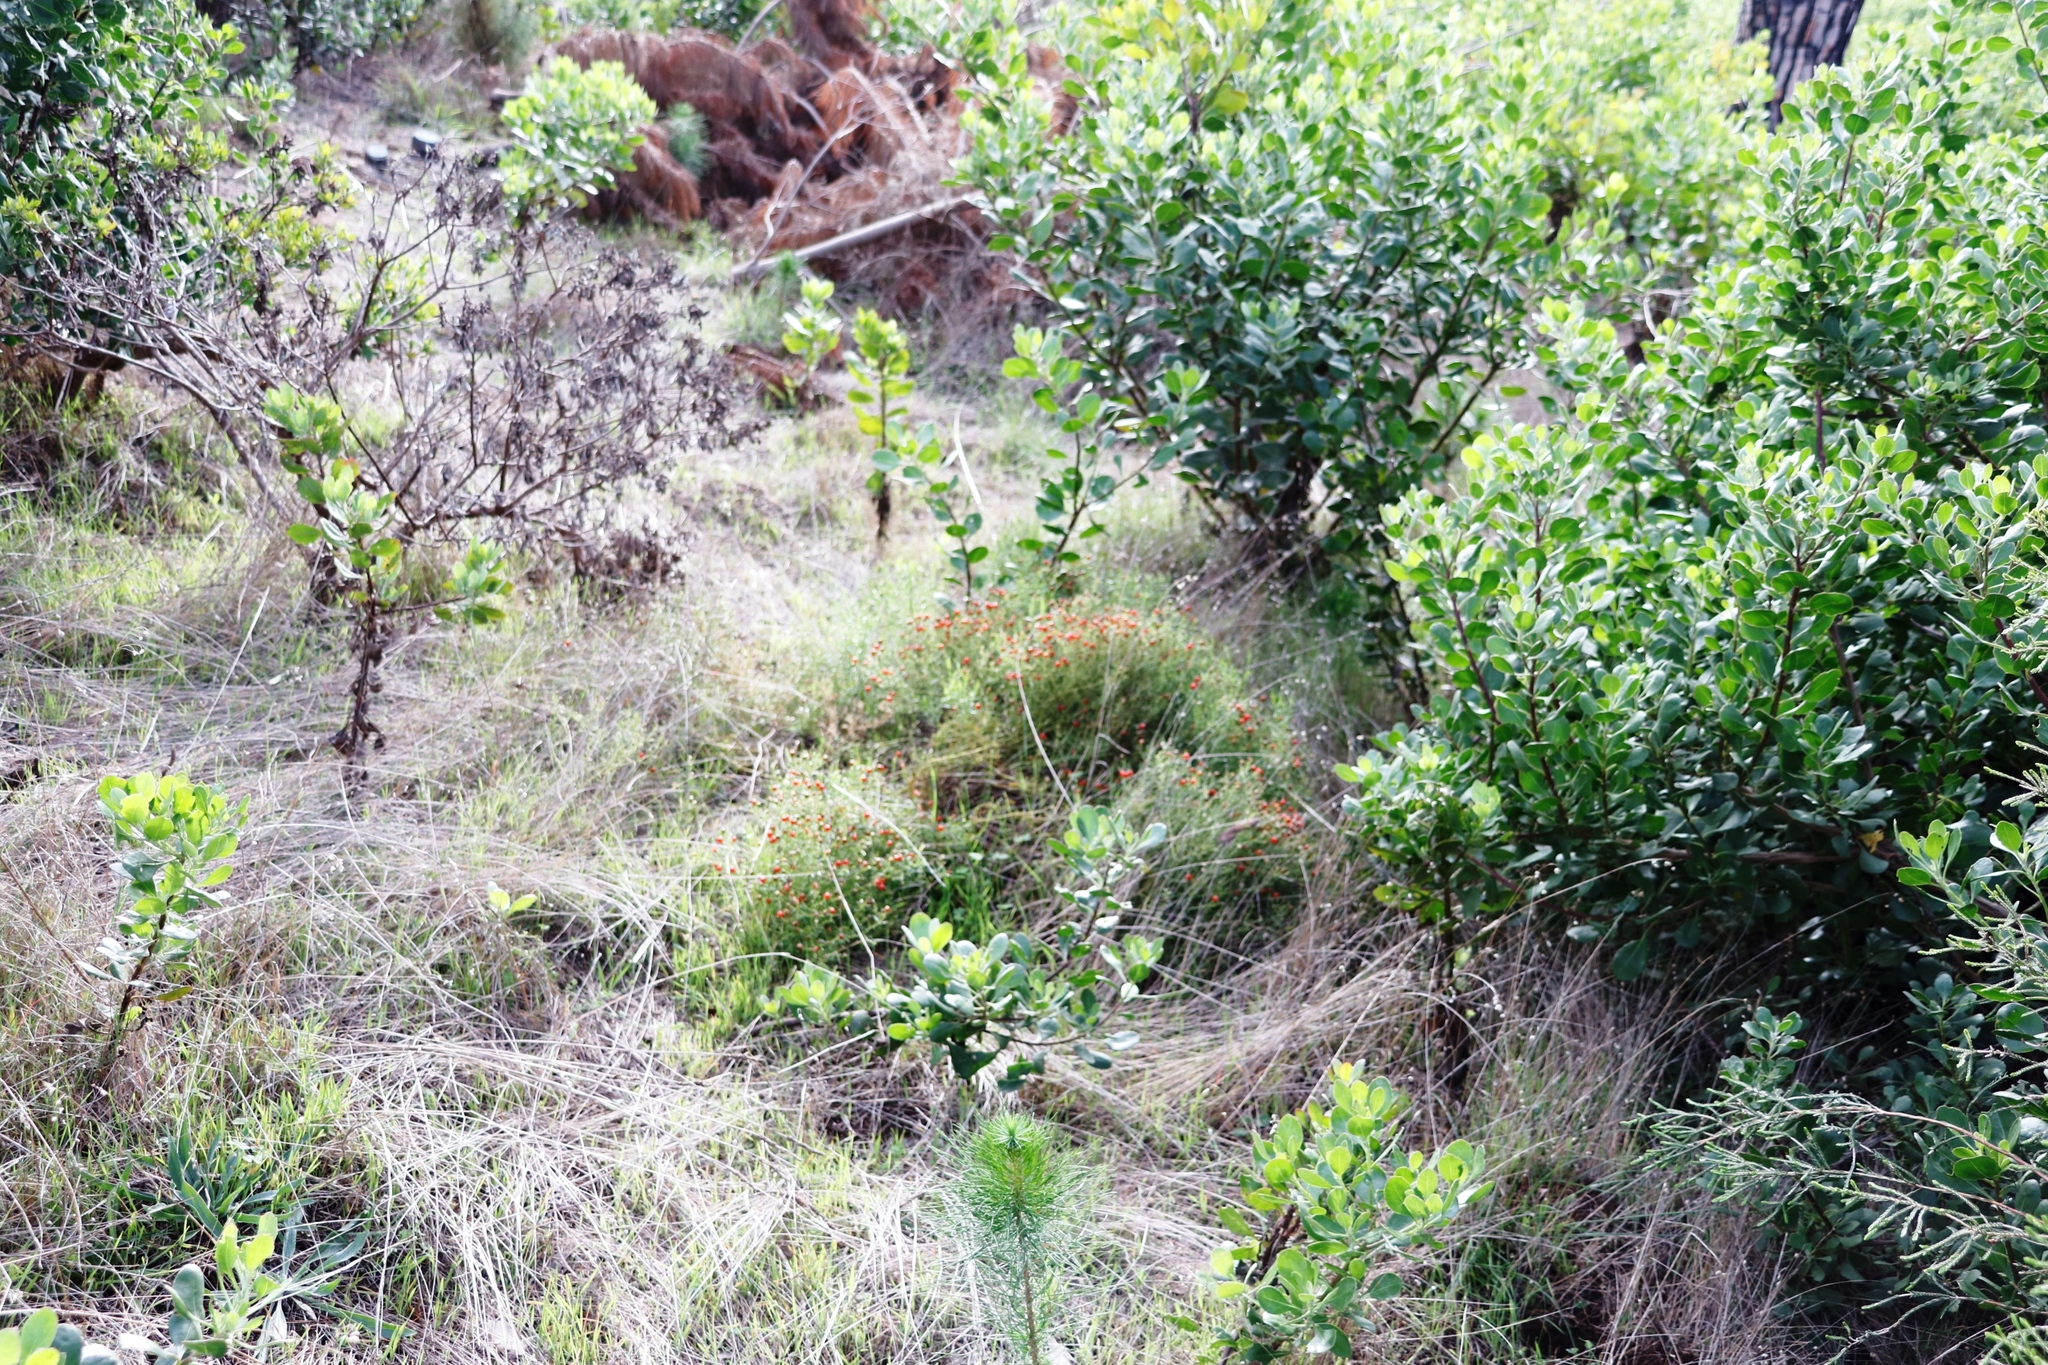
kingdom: Plantae
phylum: Tracheophyta
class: Magnoliopsida
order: Gentianales
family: Gentianaceae
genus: Chironia
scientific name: Chironia baccifera
